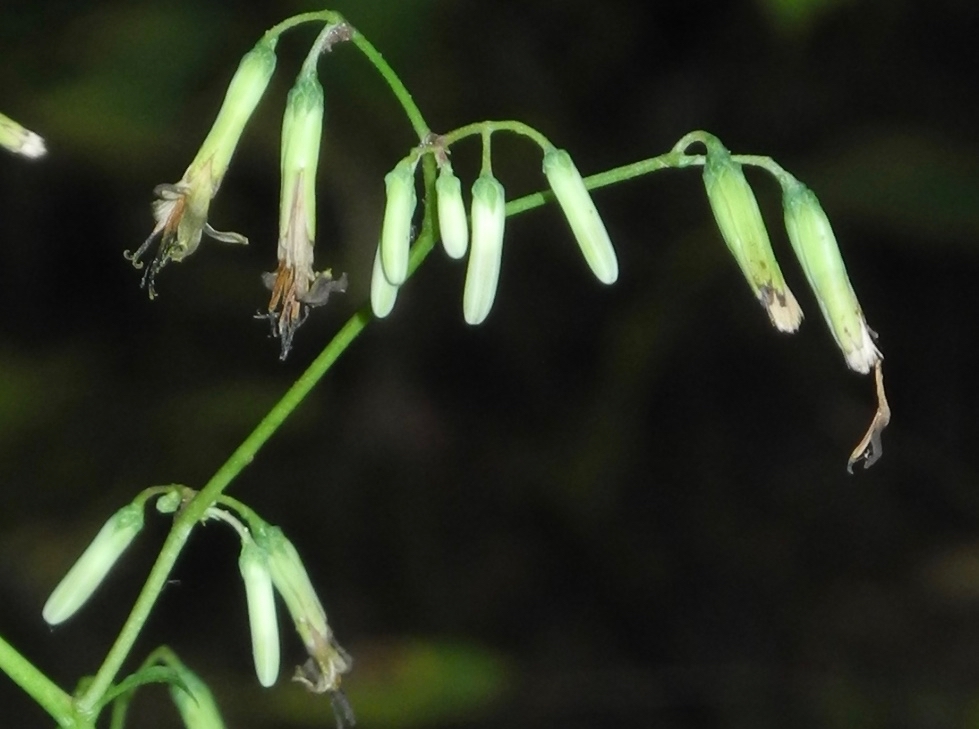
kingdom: Plantae
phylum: Tracheophyta
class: Magnoliopsida
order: Asterales
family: Asteraceae
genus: Nabalus
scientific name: Nabalus altissima
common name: Tall rattlesnakeroot
